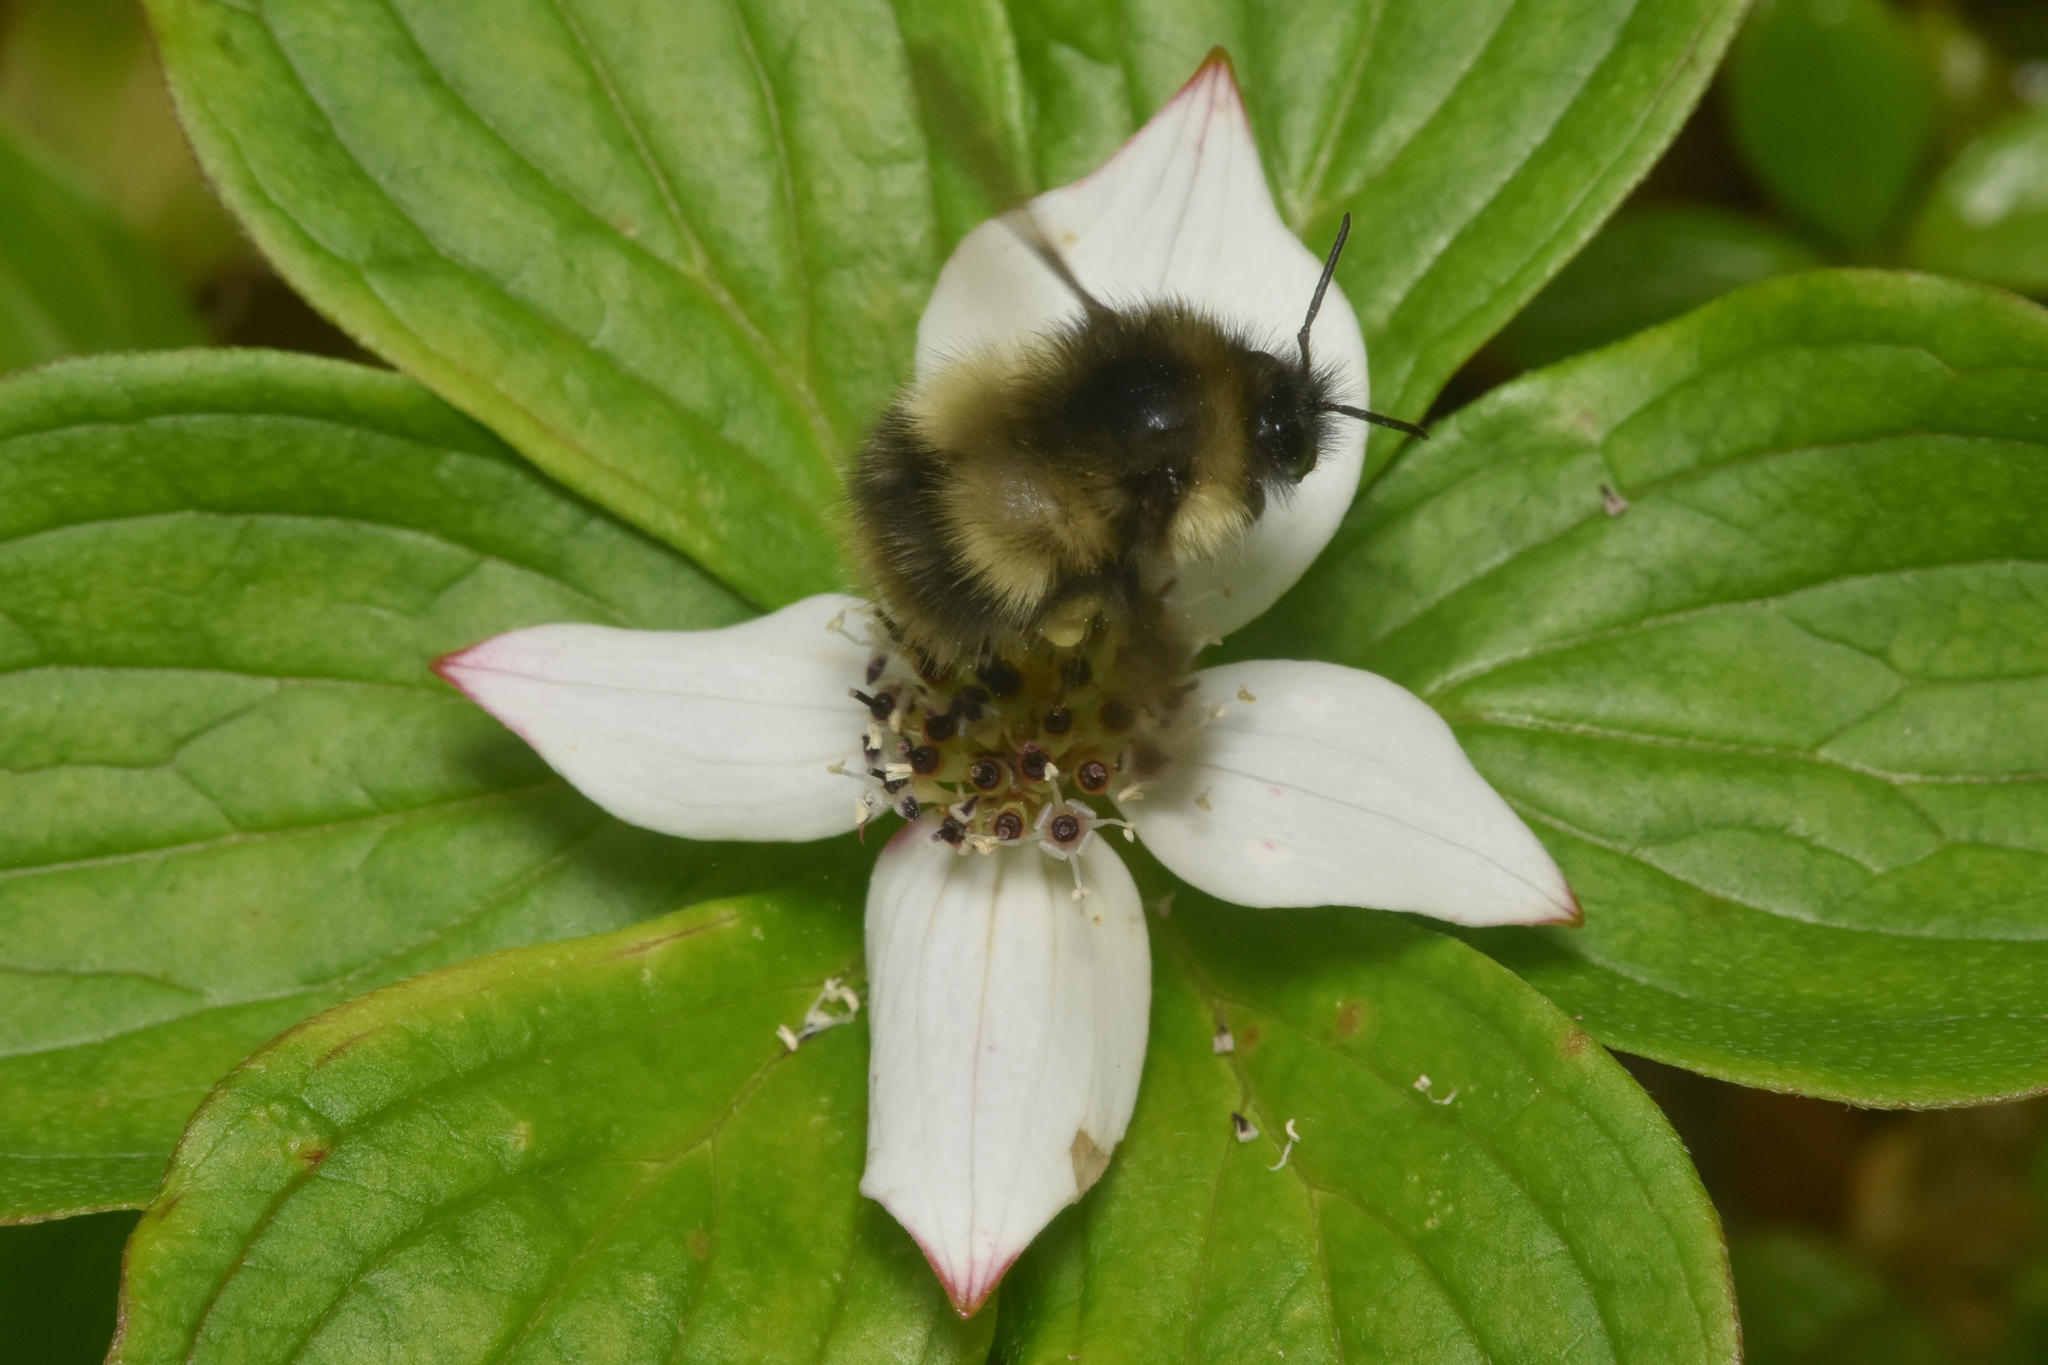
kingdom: Animalia
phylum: Arthropoda
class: Insecta
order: Hymenoptera
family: Apidae
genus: Bombus
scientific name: Bombus sitkensis
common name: Sitka bumble bee
